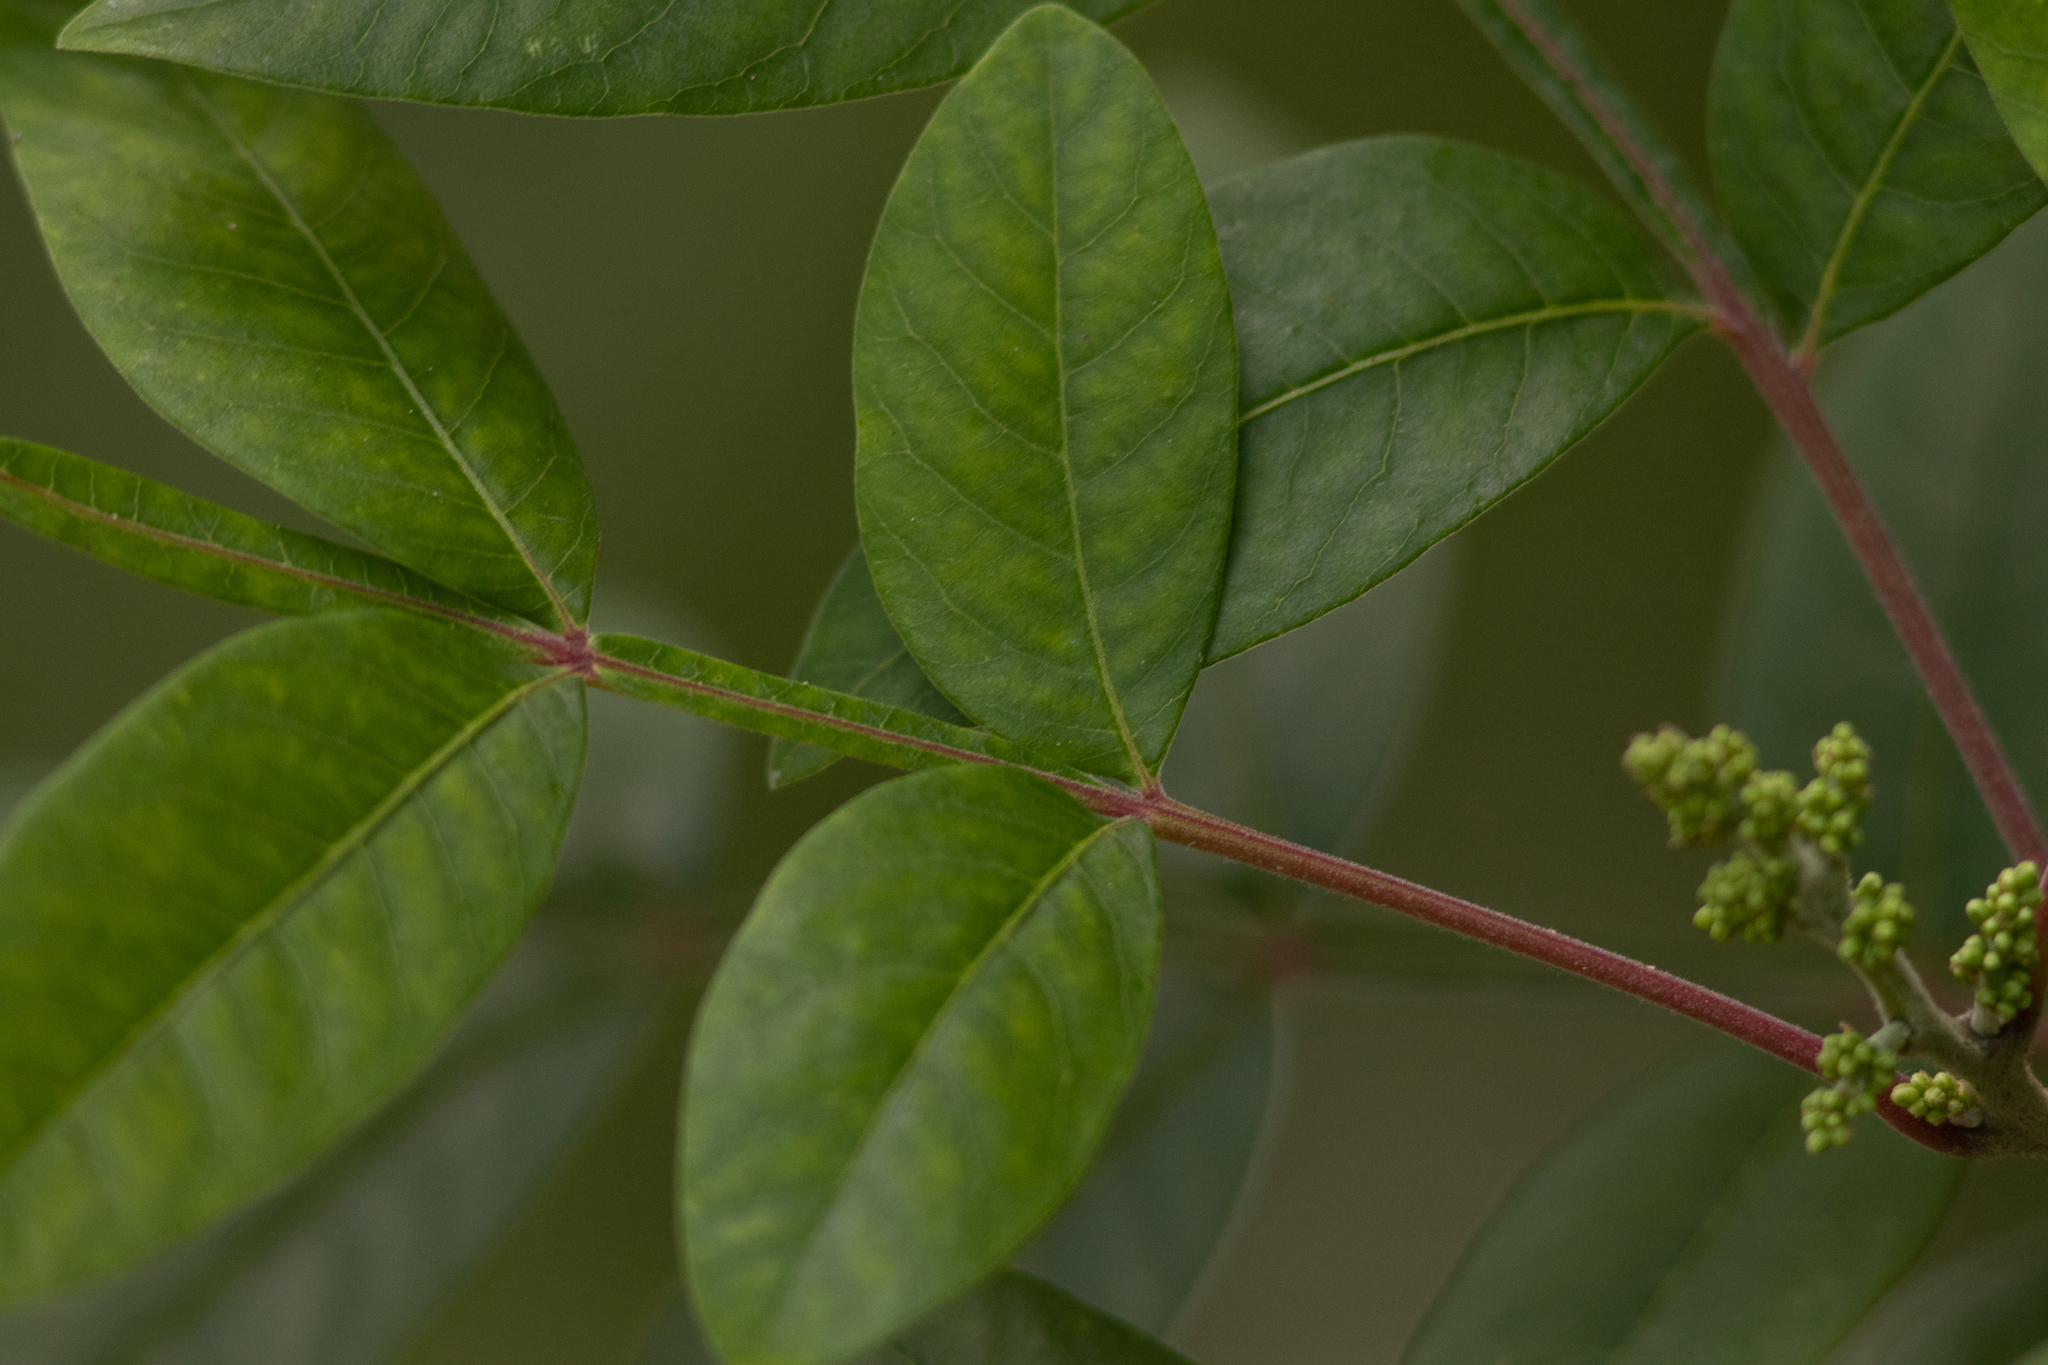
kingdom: Plantae
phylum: Tracheophyta
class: Magnoliopsida
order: Sapindales
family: Anacardiaceae
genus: Rhus
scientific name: Rhus copallina
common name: Shining sumac
